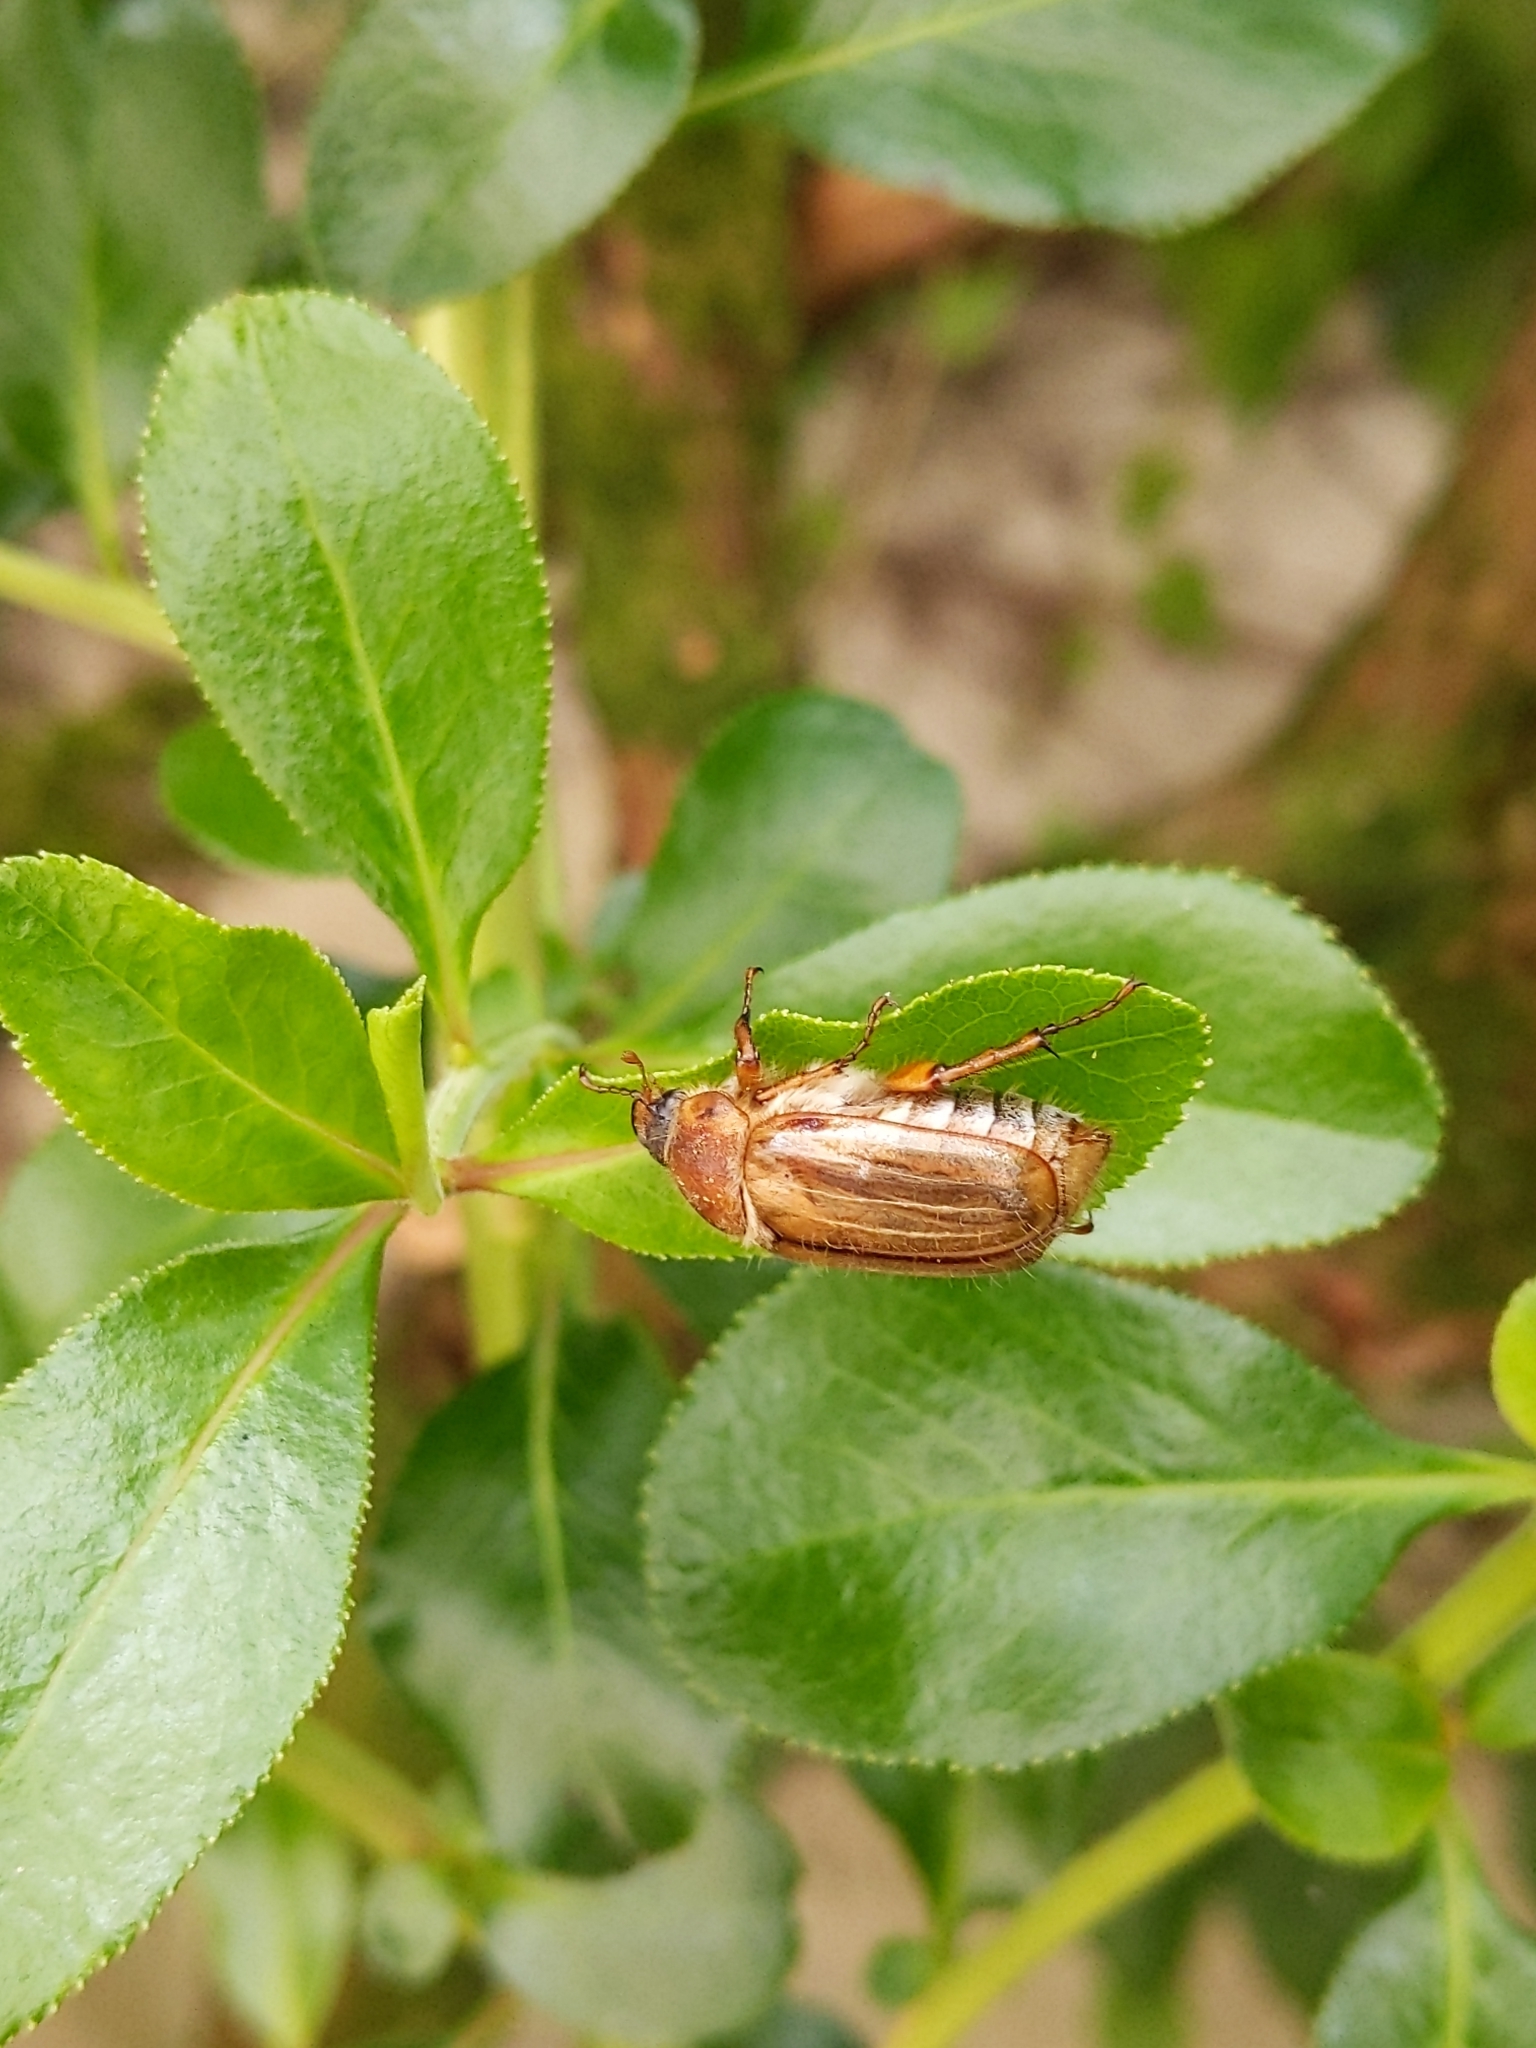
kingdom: Animalia
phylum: Arthropoda
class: Insecta
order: Coleoptera
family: Scarabaeidae
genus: Amphimallon
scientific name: Amphimallon solstitiale
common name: Summer chafer
